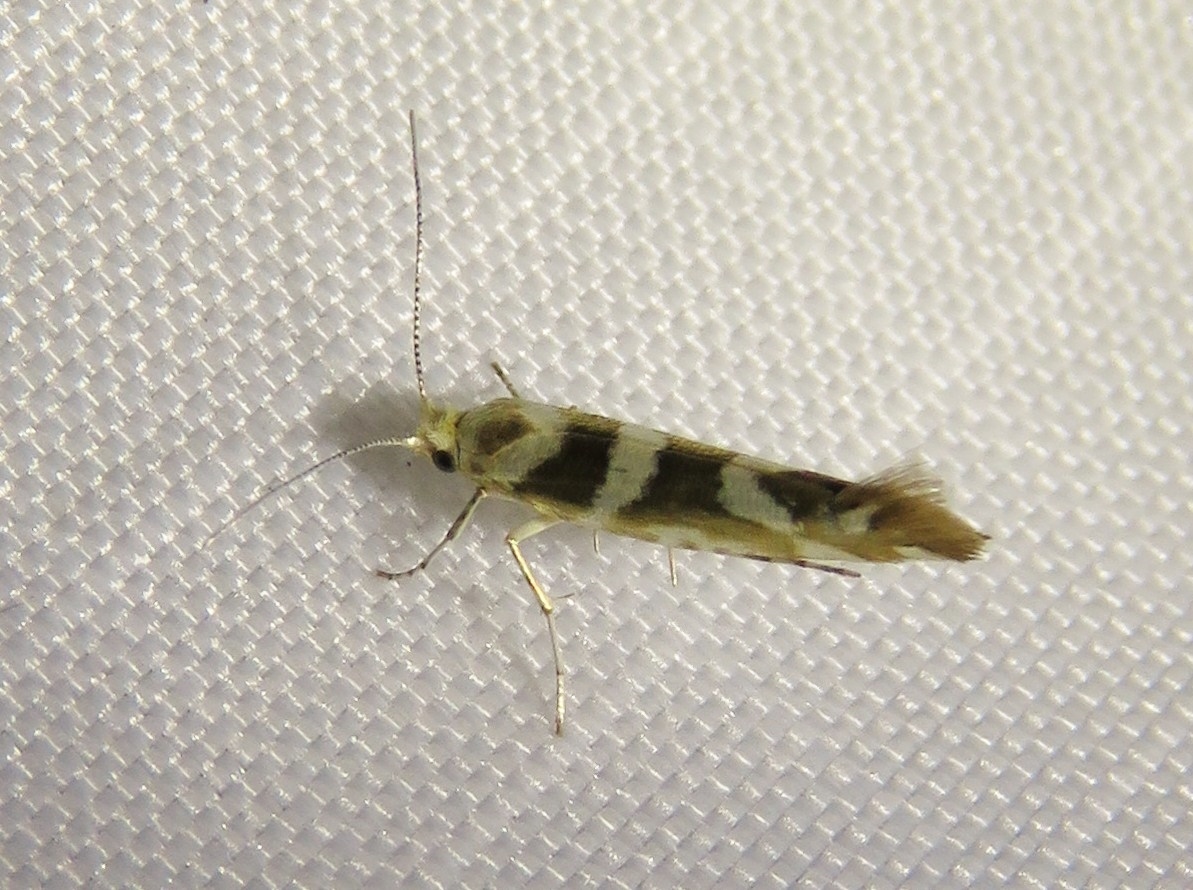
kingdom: Animalia
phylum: Arthropoda
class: Insecta
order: Lepidoptera
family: Argyresthiidae
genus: Argyresthia
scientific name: Argyresthia goedartella
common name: Golden argent
